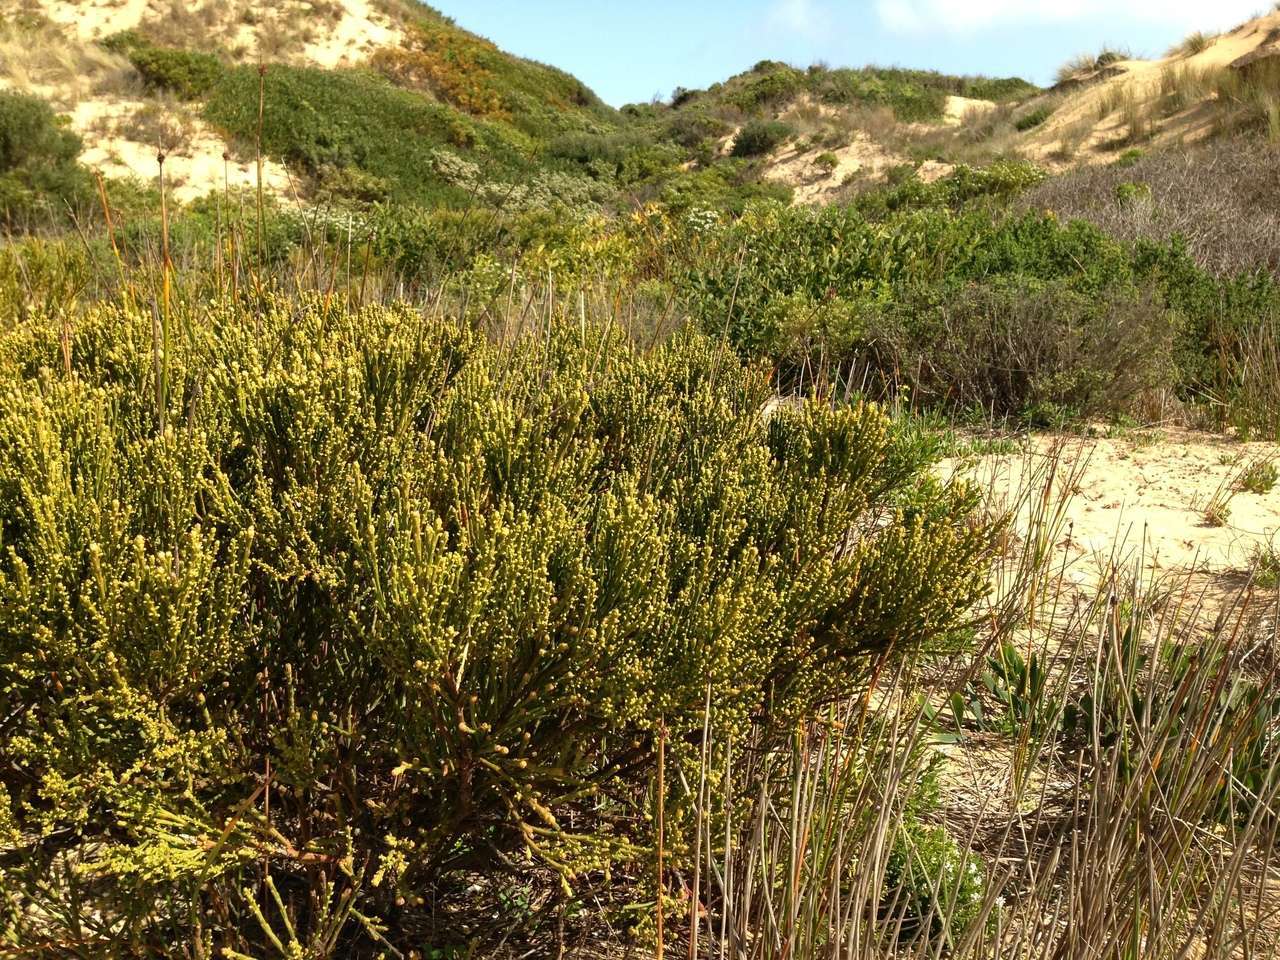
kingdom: Plantae
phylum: Tracheophyta
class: Magnoliopsida
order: Santalales
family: Santalaceae
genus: Exocarpos
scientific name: Exocarpos syrticola
